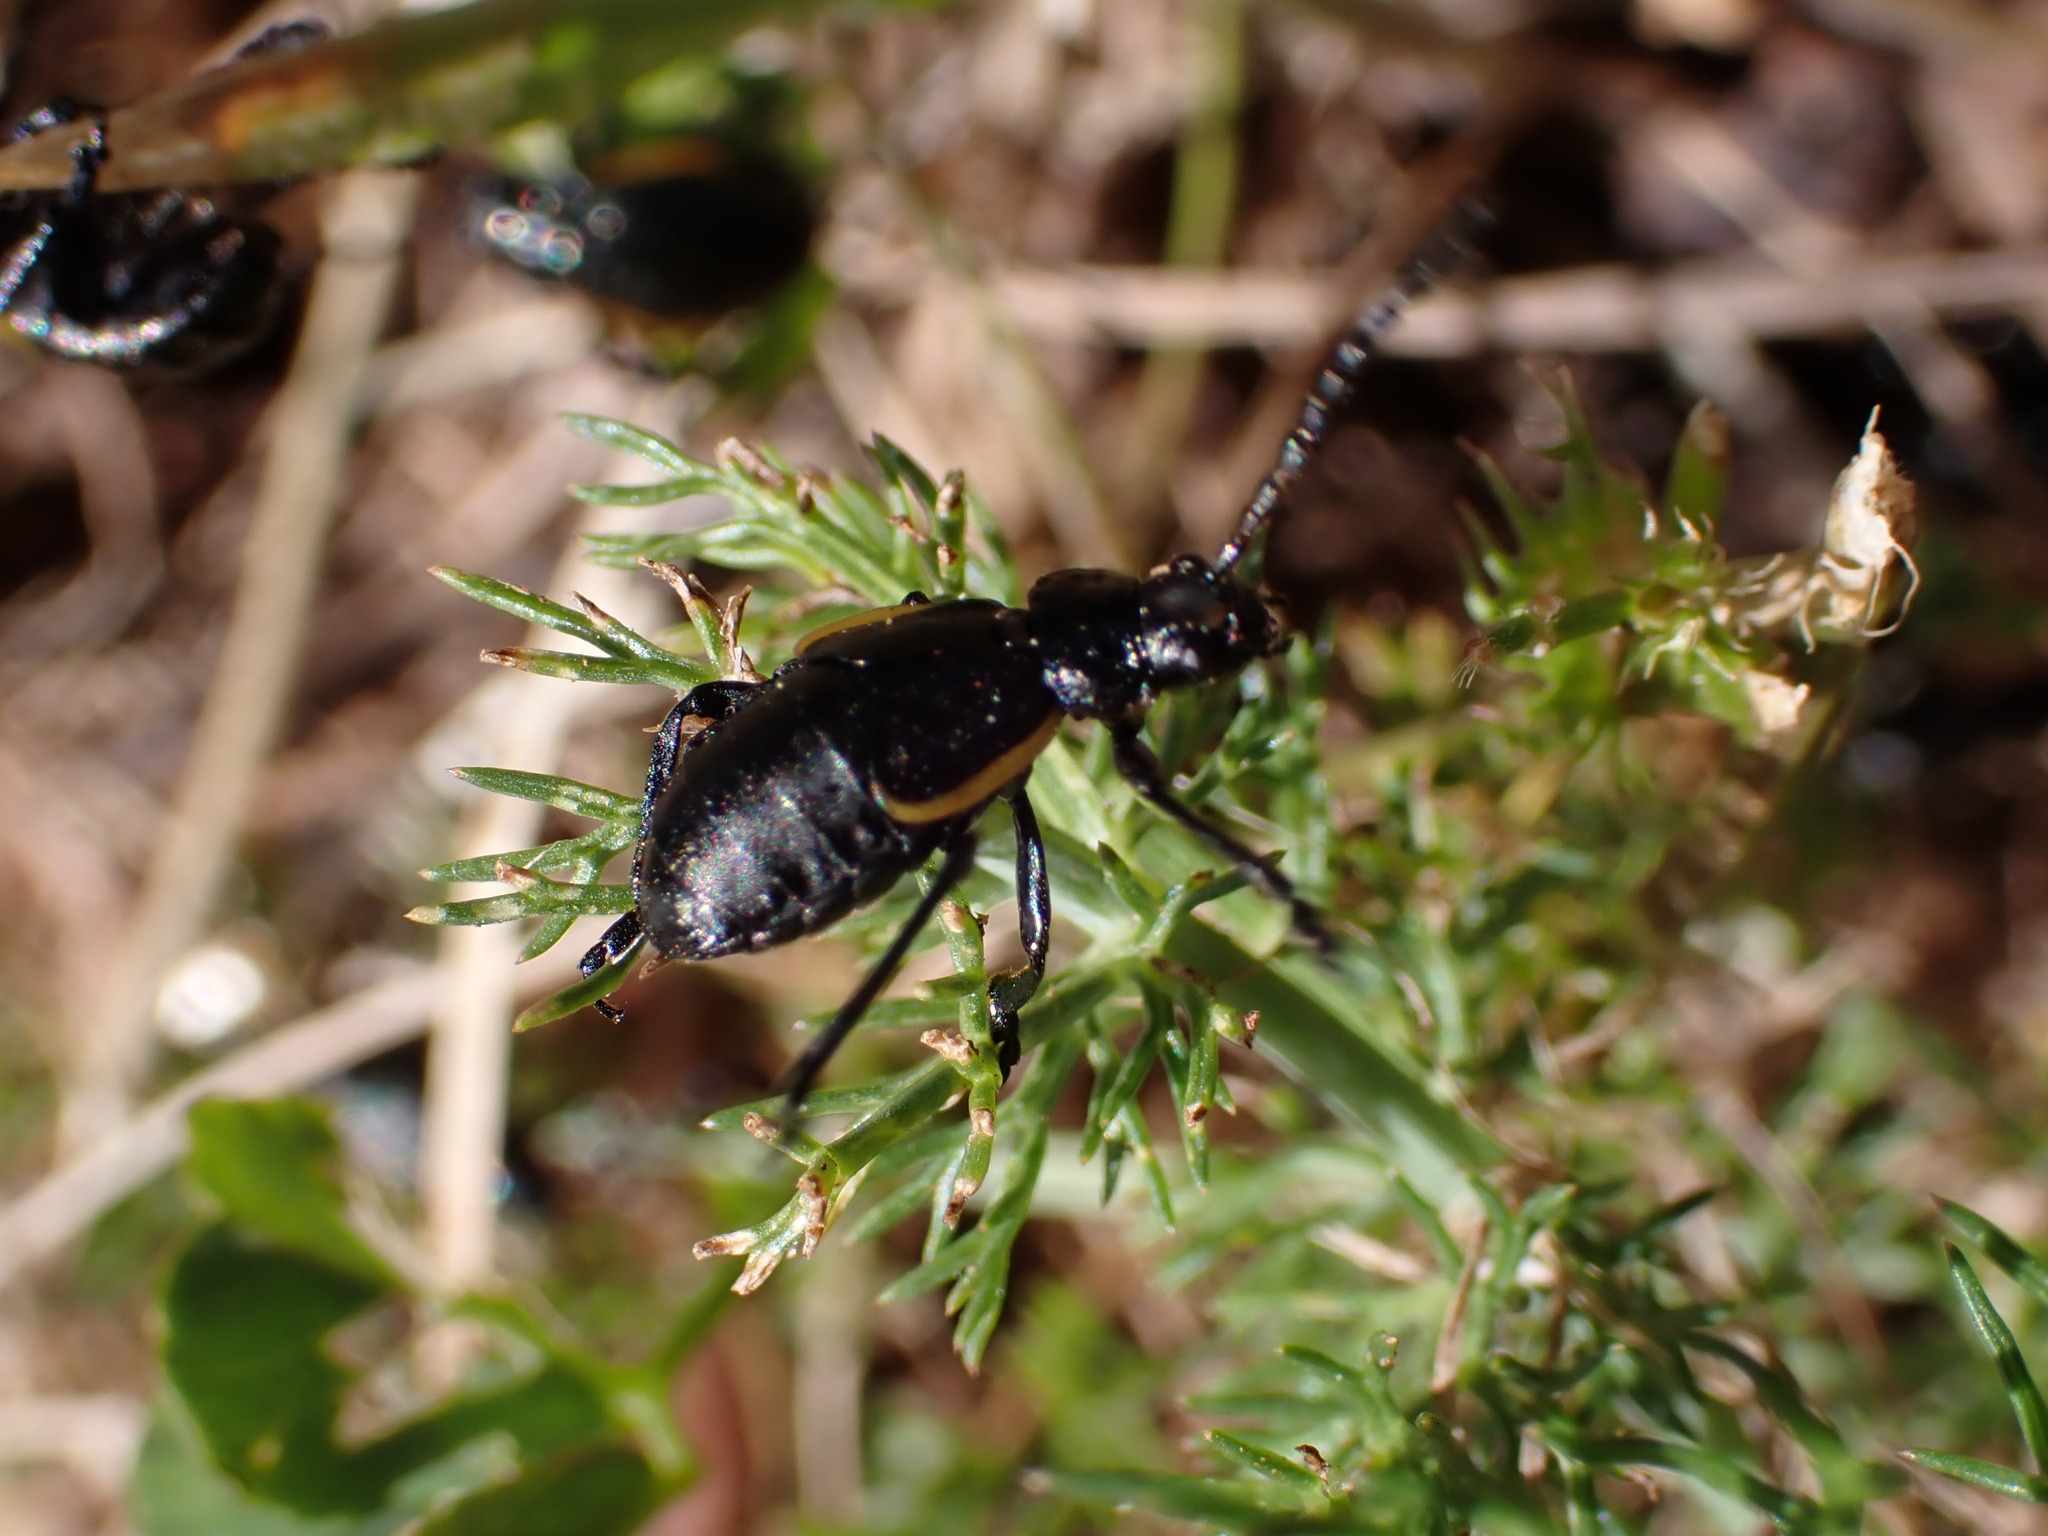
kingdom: Animalia
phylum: Arthropoda
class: Insecta
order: Coleoptera
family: Chrysomelidae
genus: Arima
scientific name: Arima marginata
